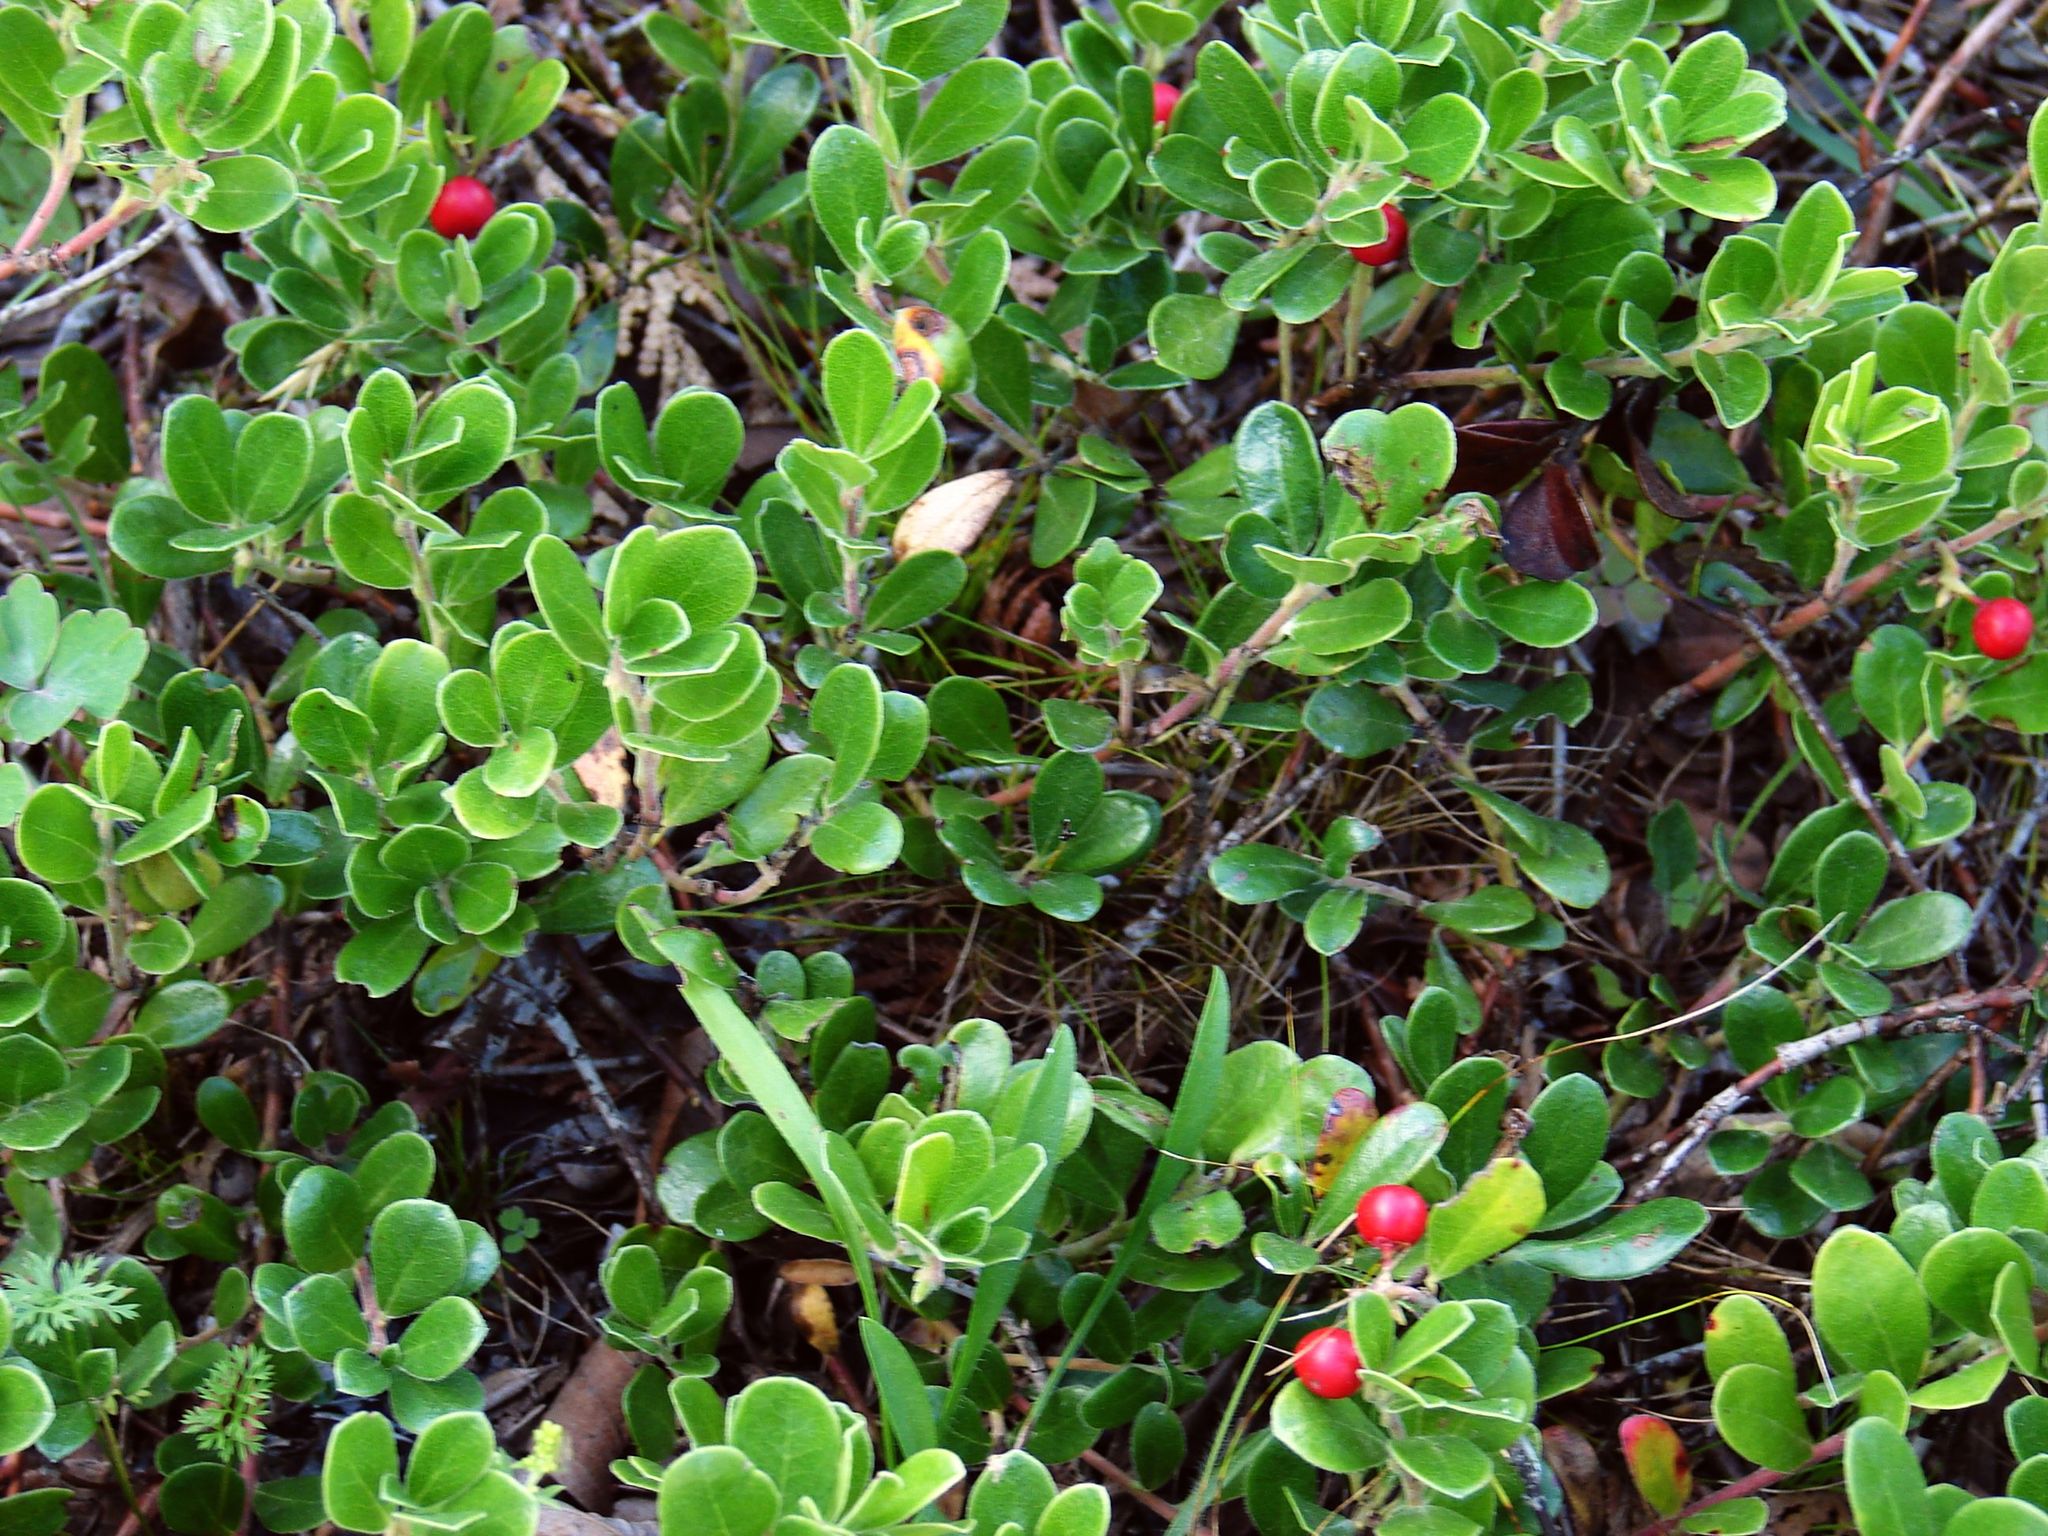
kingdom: Plantae
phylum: Tracheophyta
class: Magnoliopsida
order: Ericales
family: Ericaceae
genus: Arctostaphylos
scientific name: Arctostaphylos uva-ursi
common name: Bearberry
